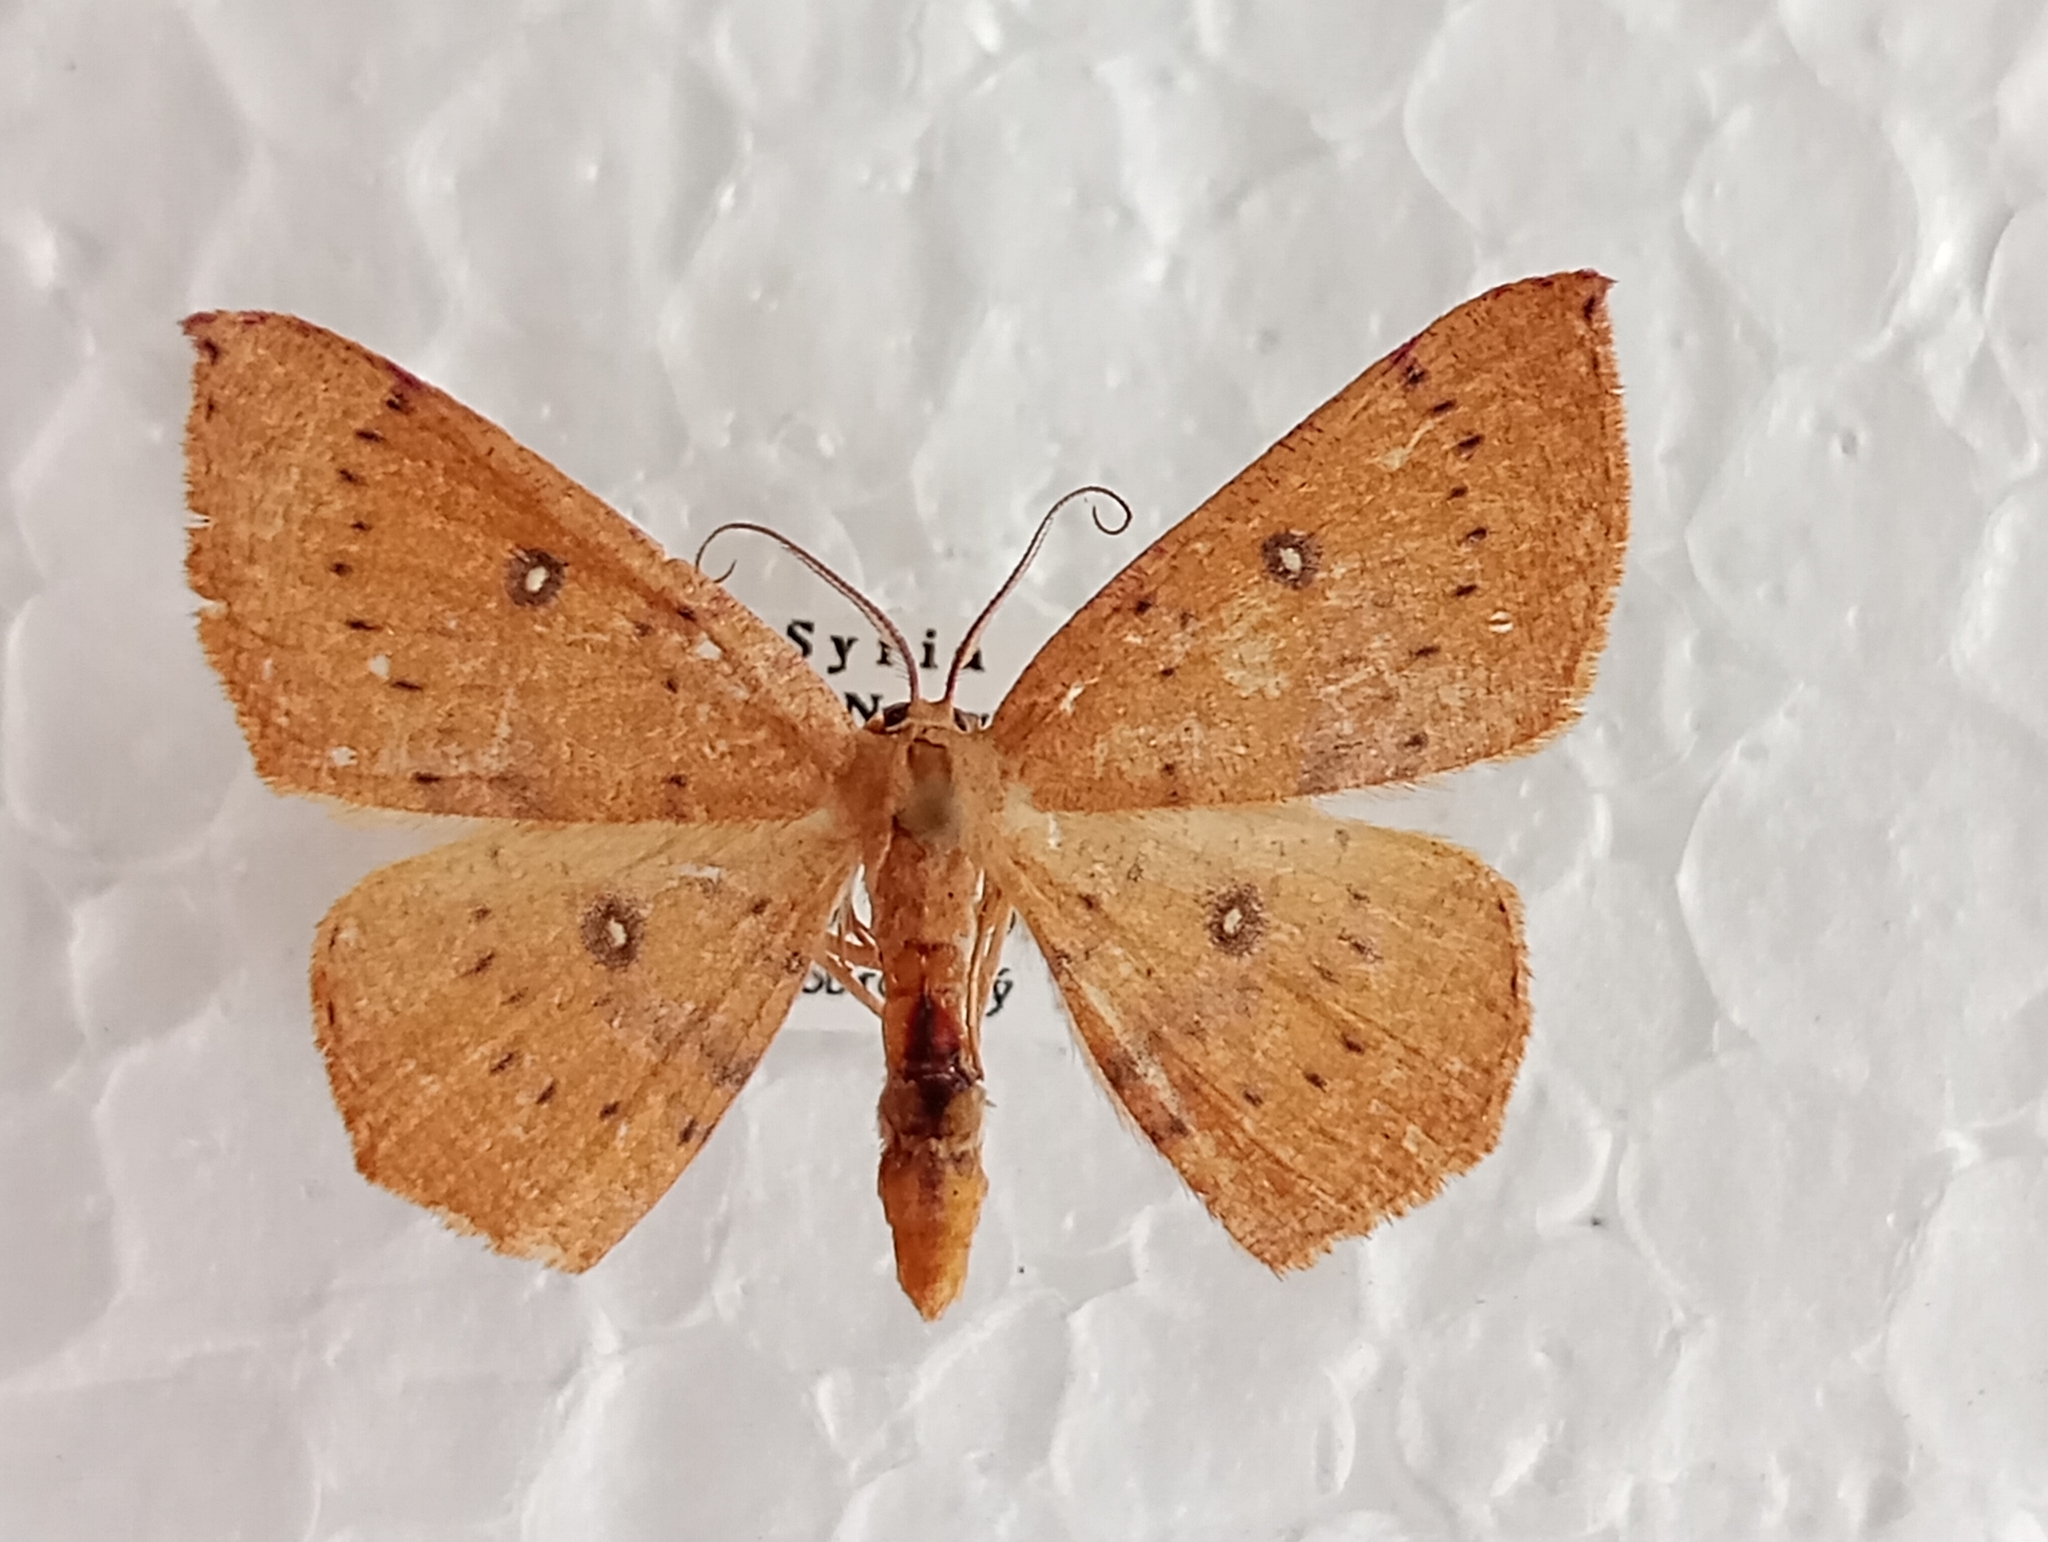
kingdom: Animalia
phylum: Arthropoda
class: Insecta
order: Lepidoptera
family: Geometridae
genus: Cyclophora
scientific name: Cyclophora puppillaria
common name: Blair's mocha
